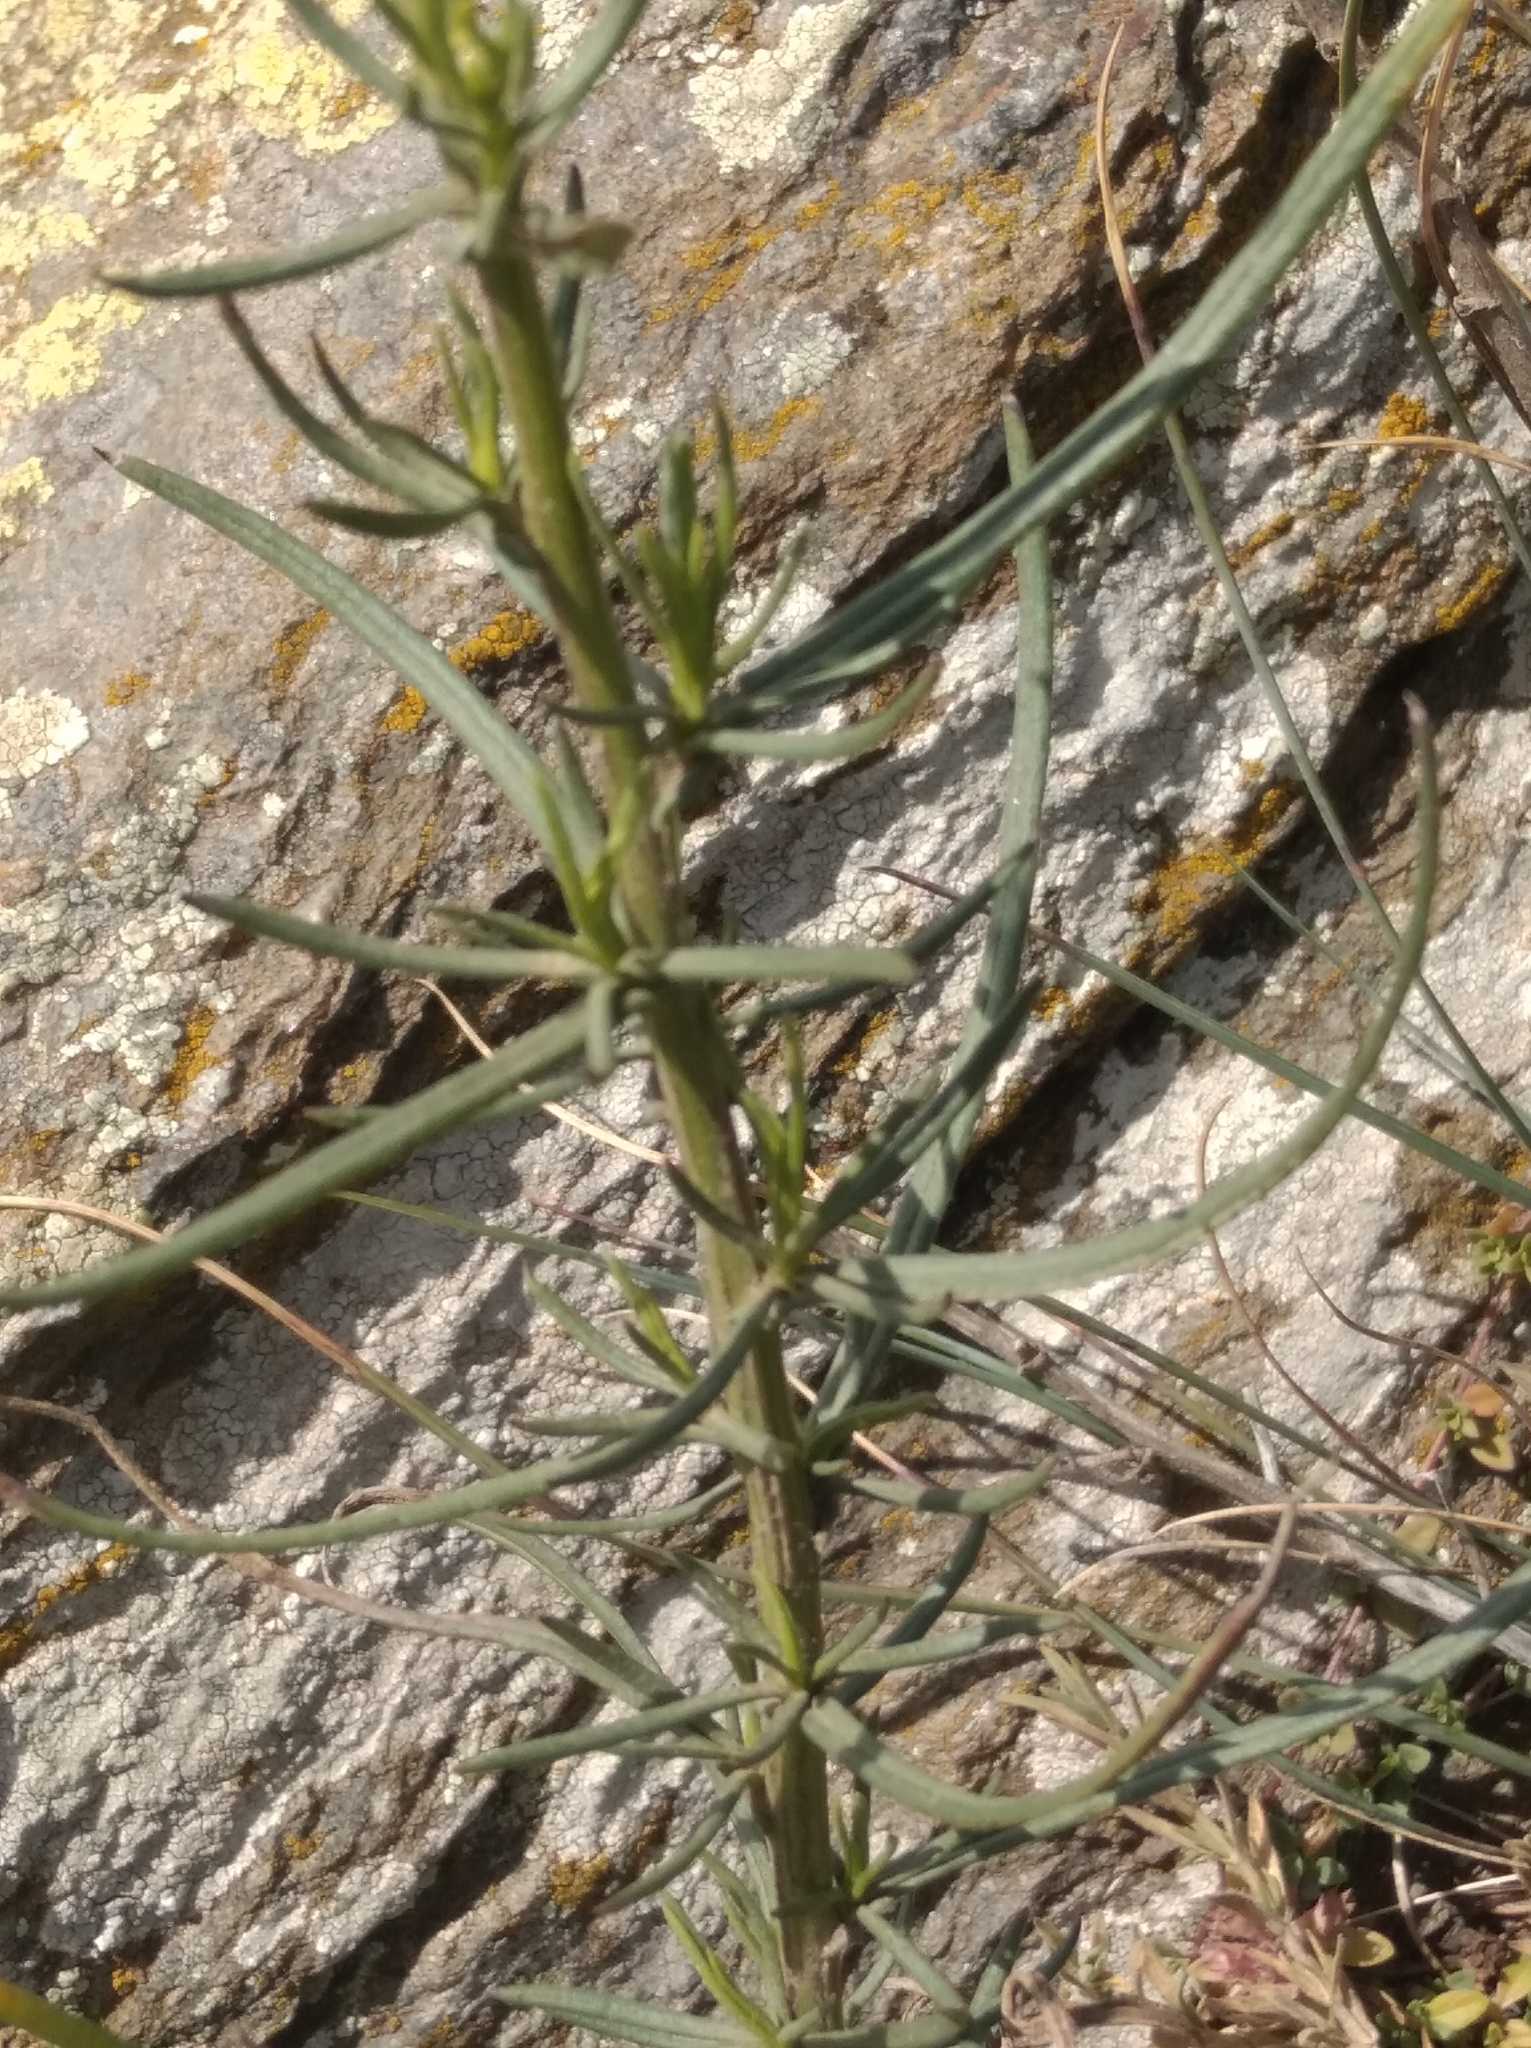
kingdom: Plantae
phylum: Tracheophyta
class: Magnoliopsida
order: Asterales
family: Asteraceae
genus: Senecio
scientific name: Senecio inaequidens
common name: Narrow-leaved ragwort
